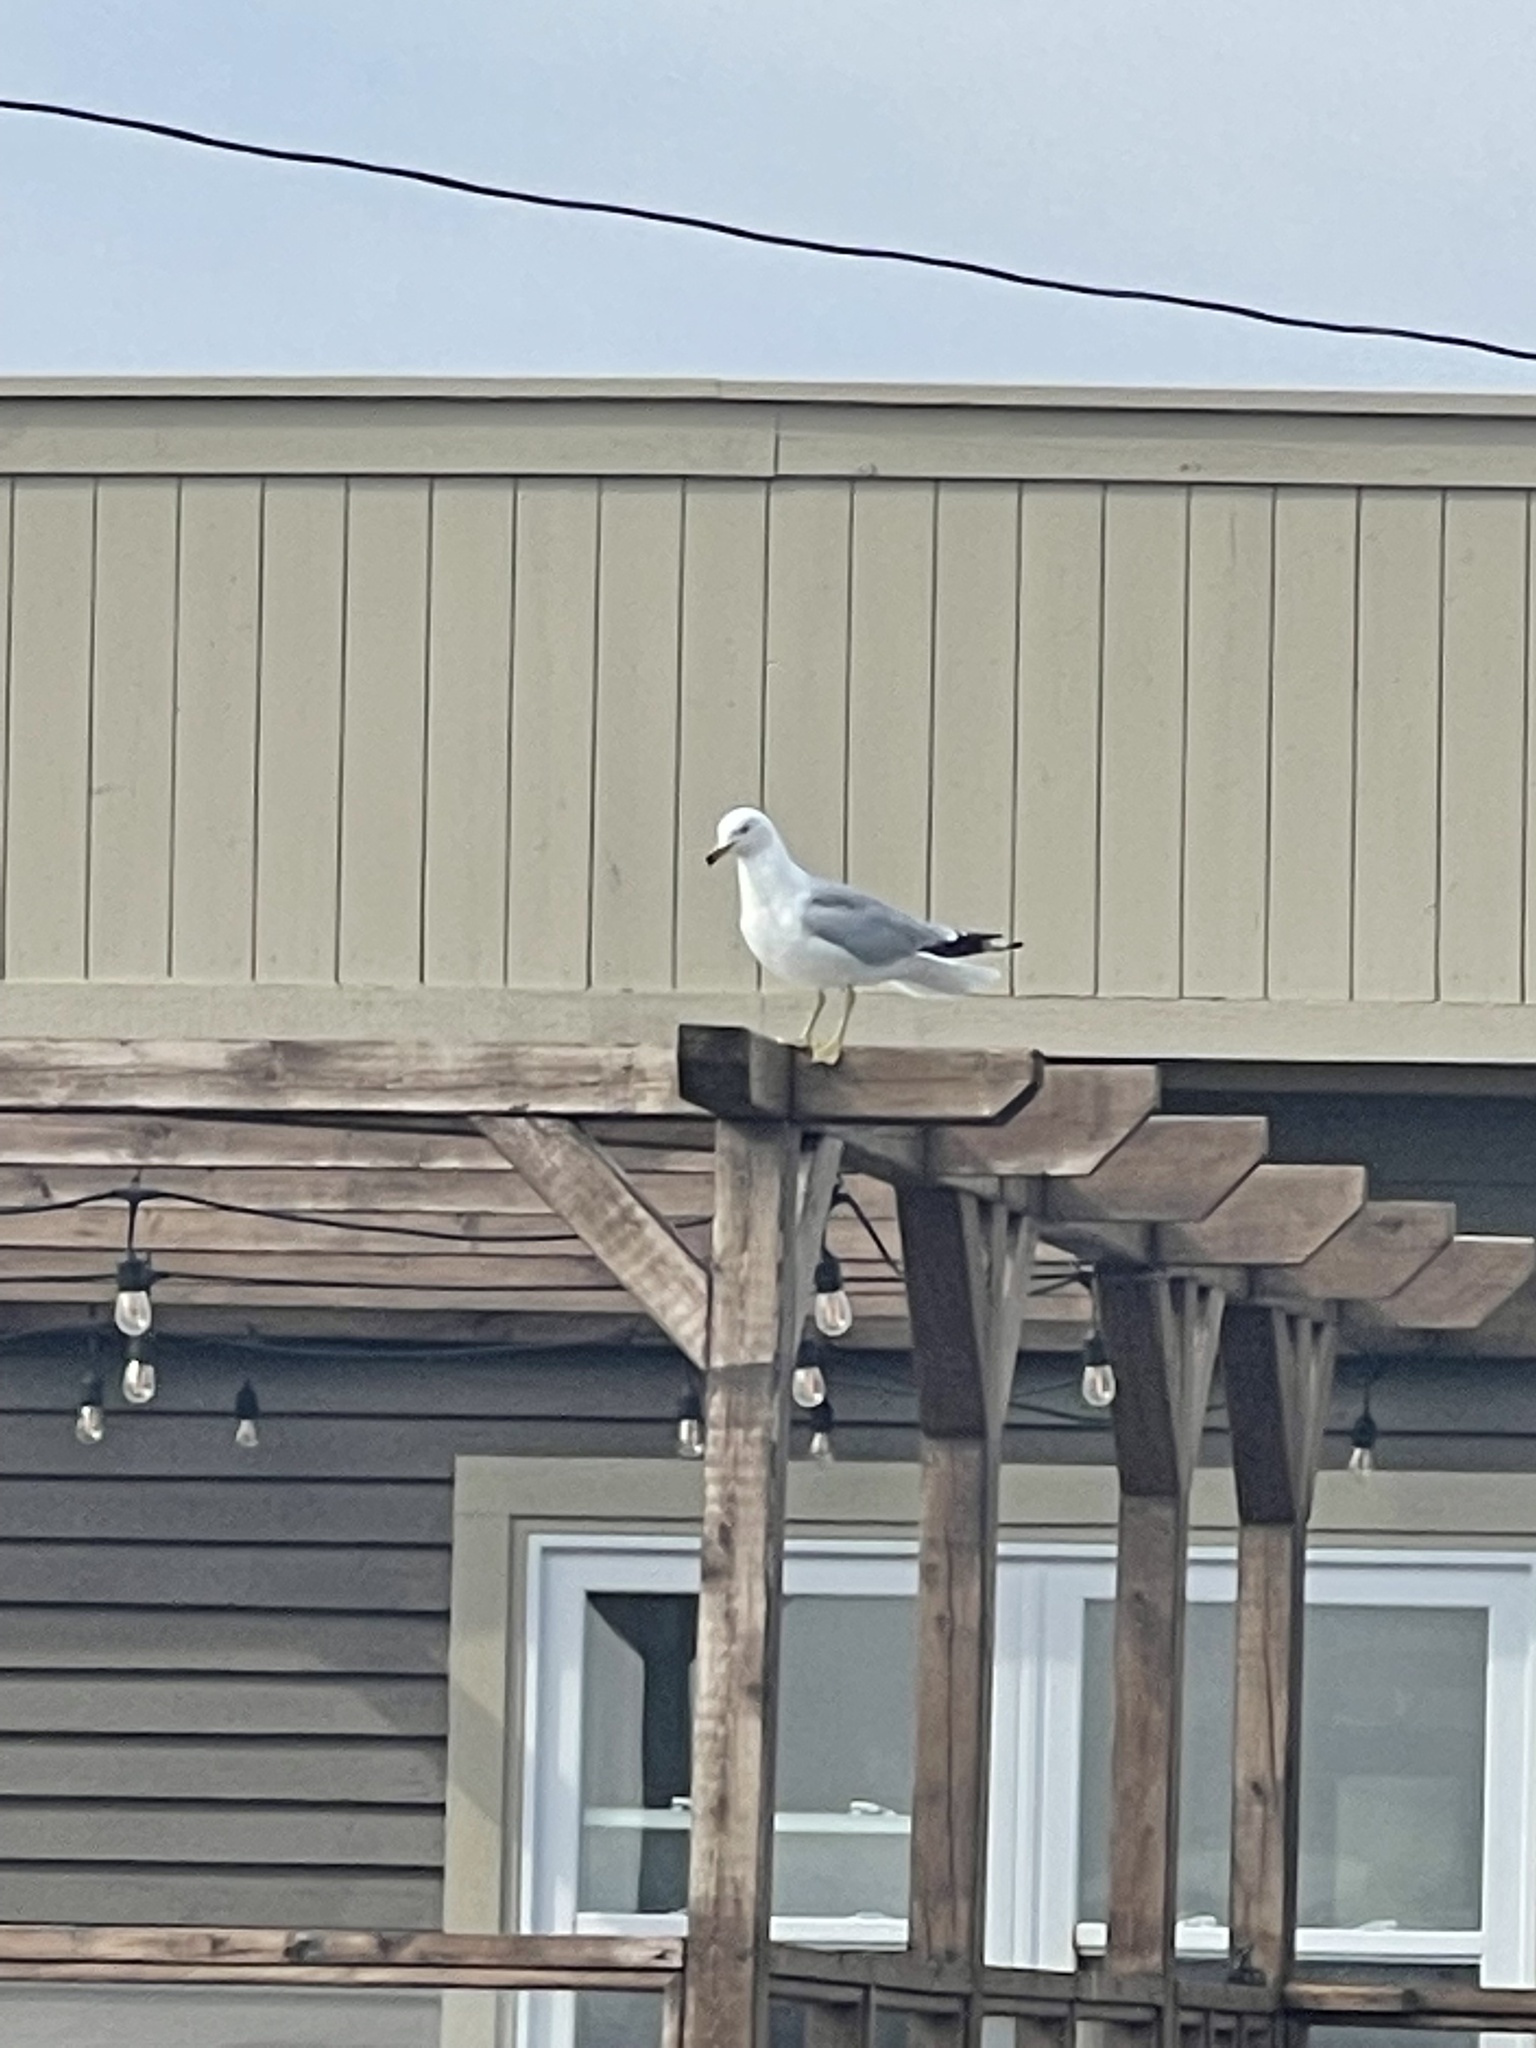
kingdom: Animalia
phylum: Chordata
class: Aves
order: Charadriiformes
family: Laridae
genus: Larus
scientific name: Larus delawarensis
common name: Ring-billed gull
